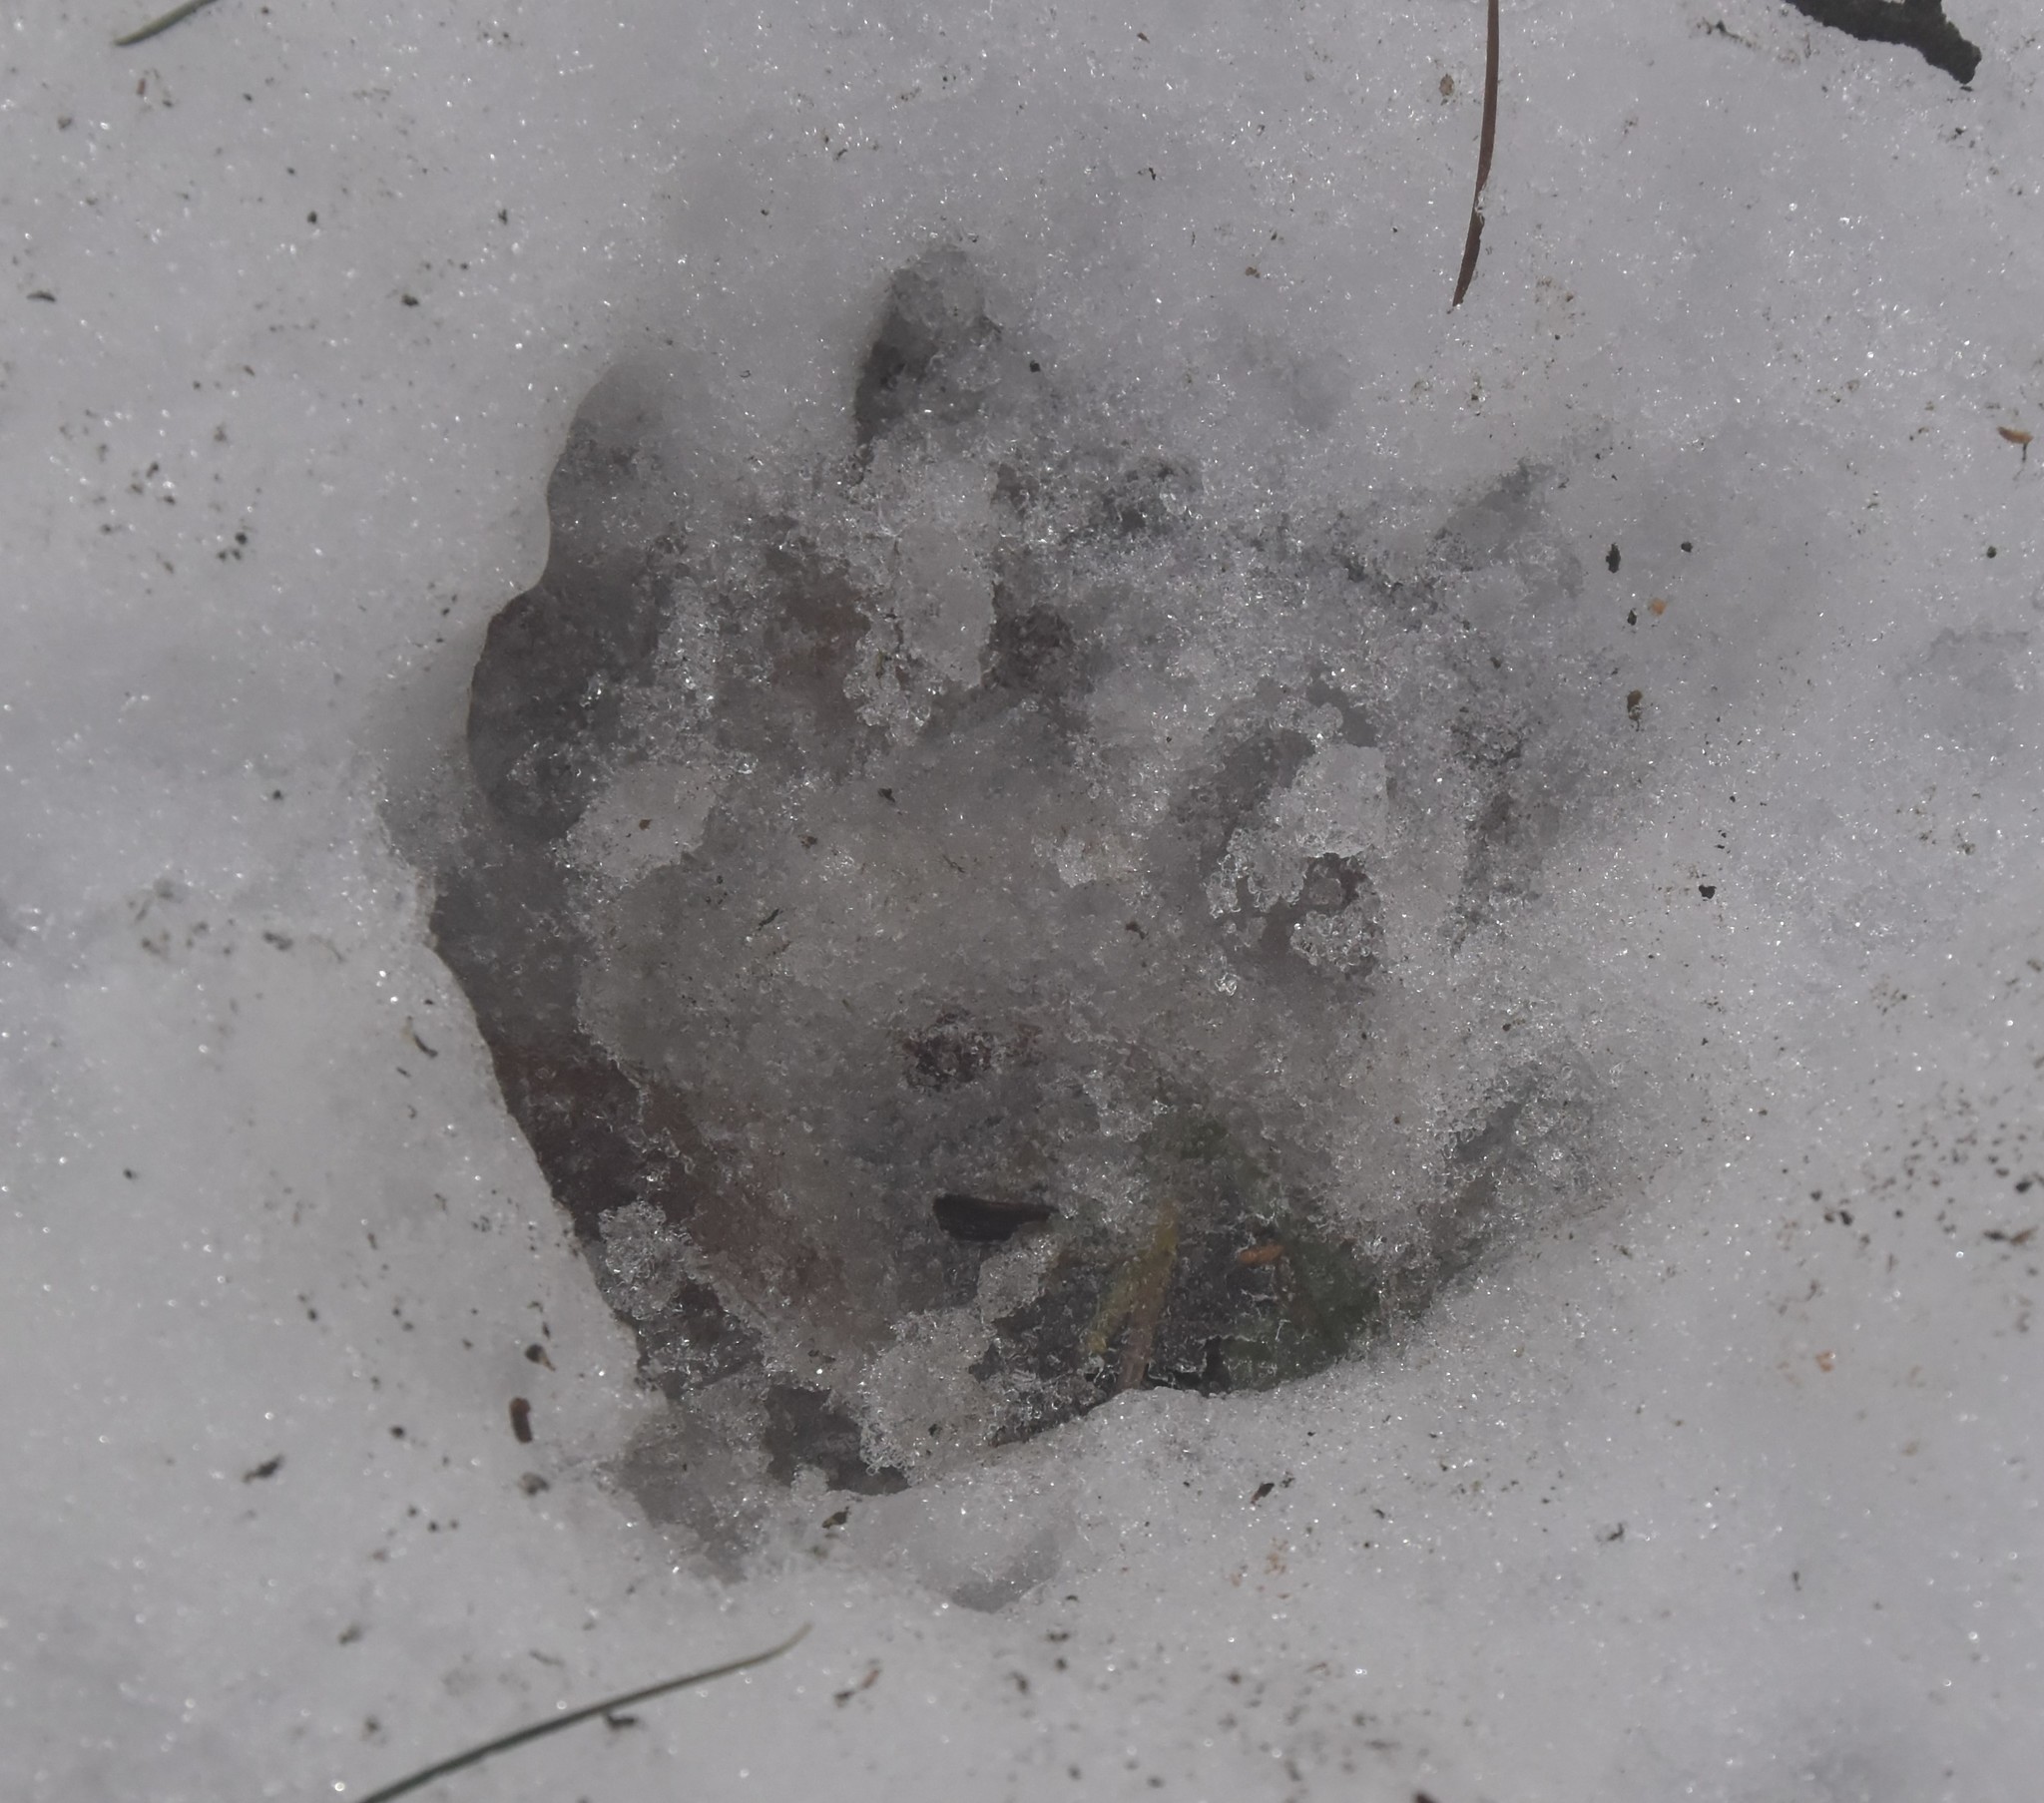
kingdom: Animalia
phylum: Chordata
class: Mammalia
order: Carnivora
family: Canidae
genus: Canis
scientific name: Canis lupus
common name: Gray wolf
